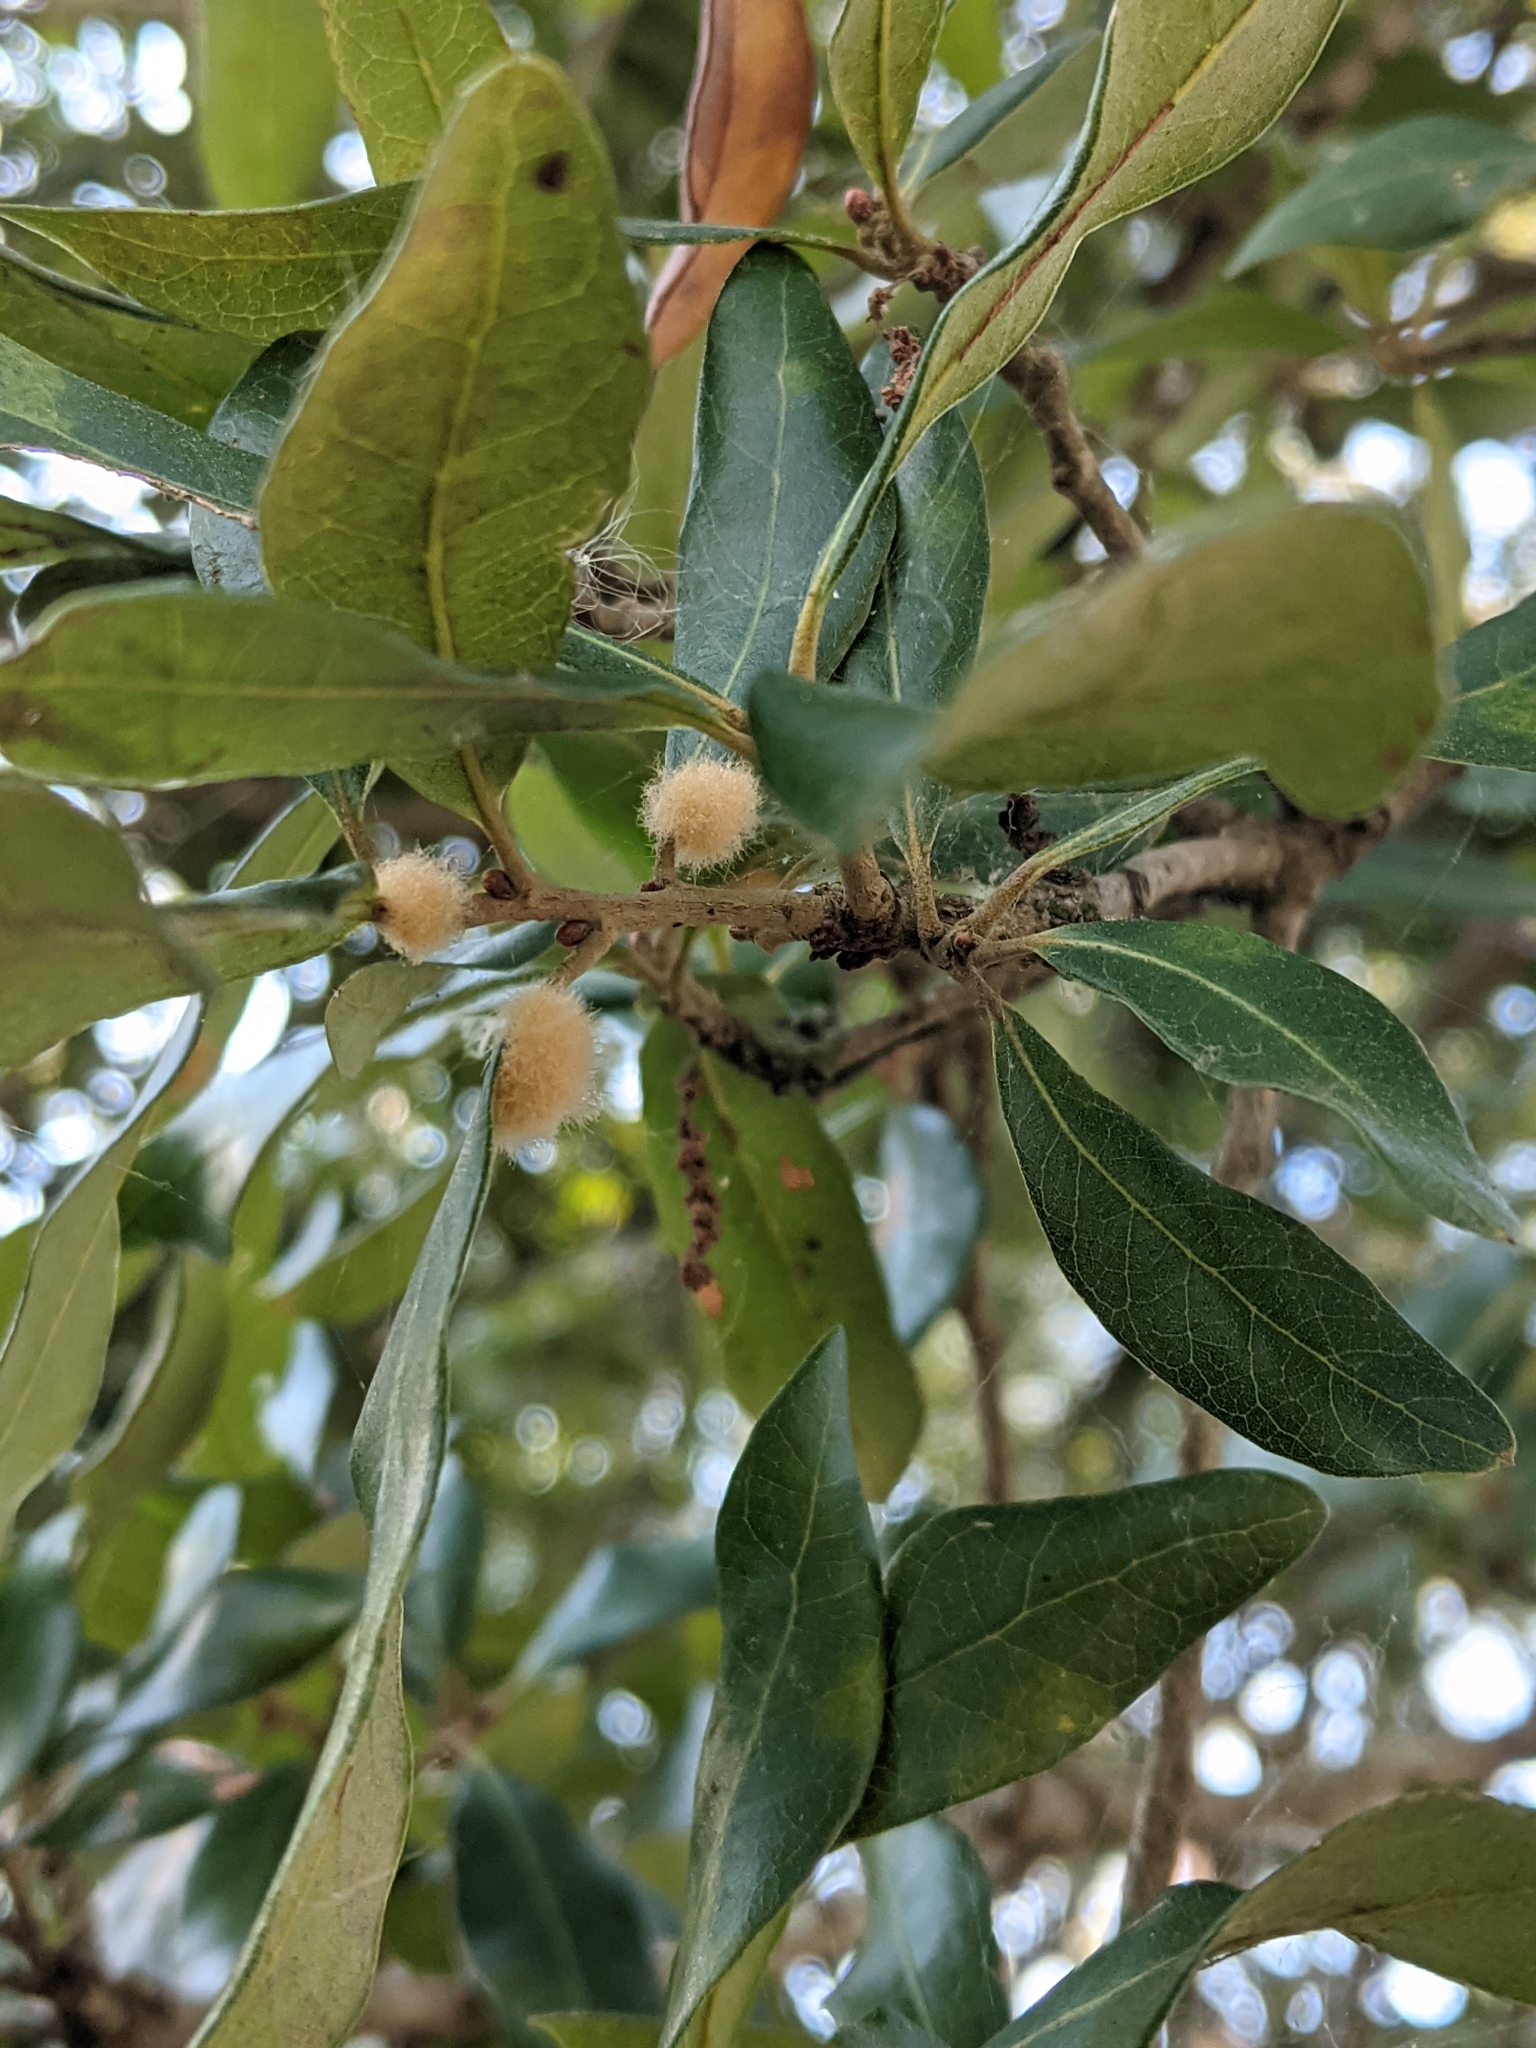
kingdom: Plantae
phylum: Tracheophyta
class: Magnoliopsida
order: Fagales
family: Fagaceae
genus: Quercus
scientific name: Quercus virginiana
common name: Southern live oak
